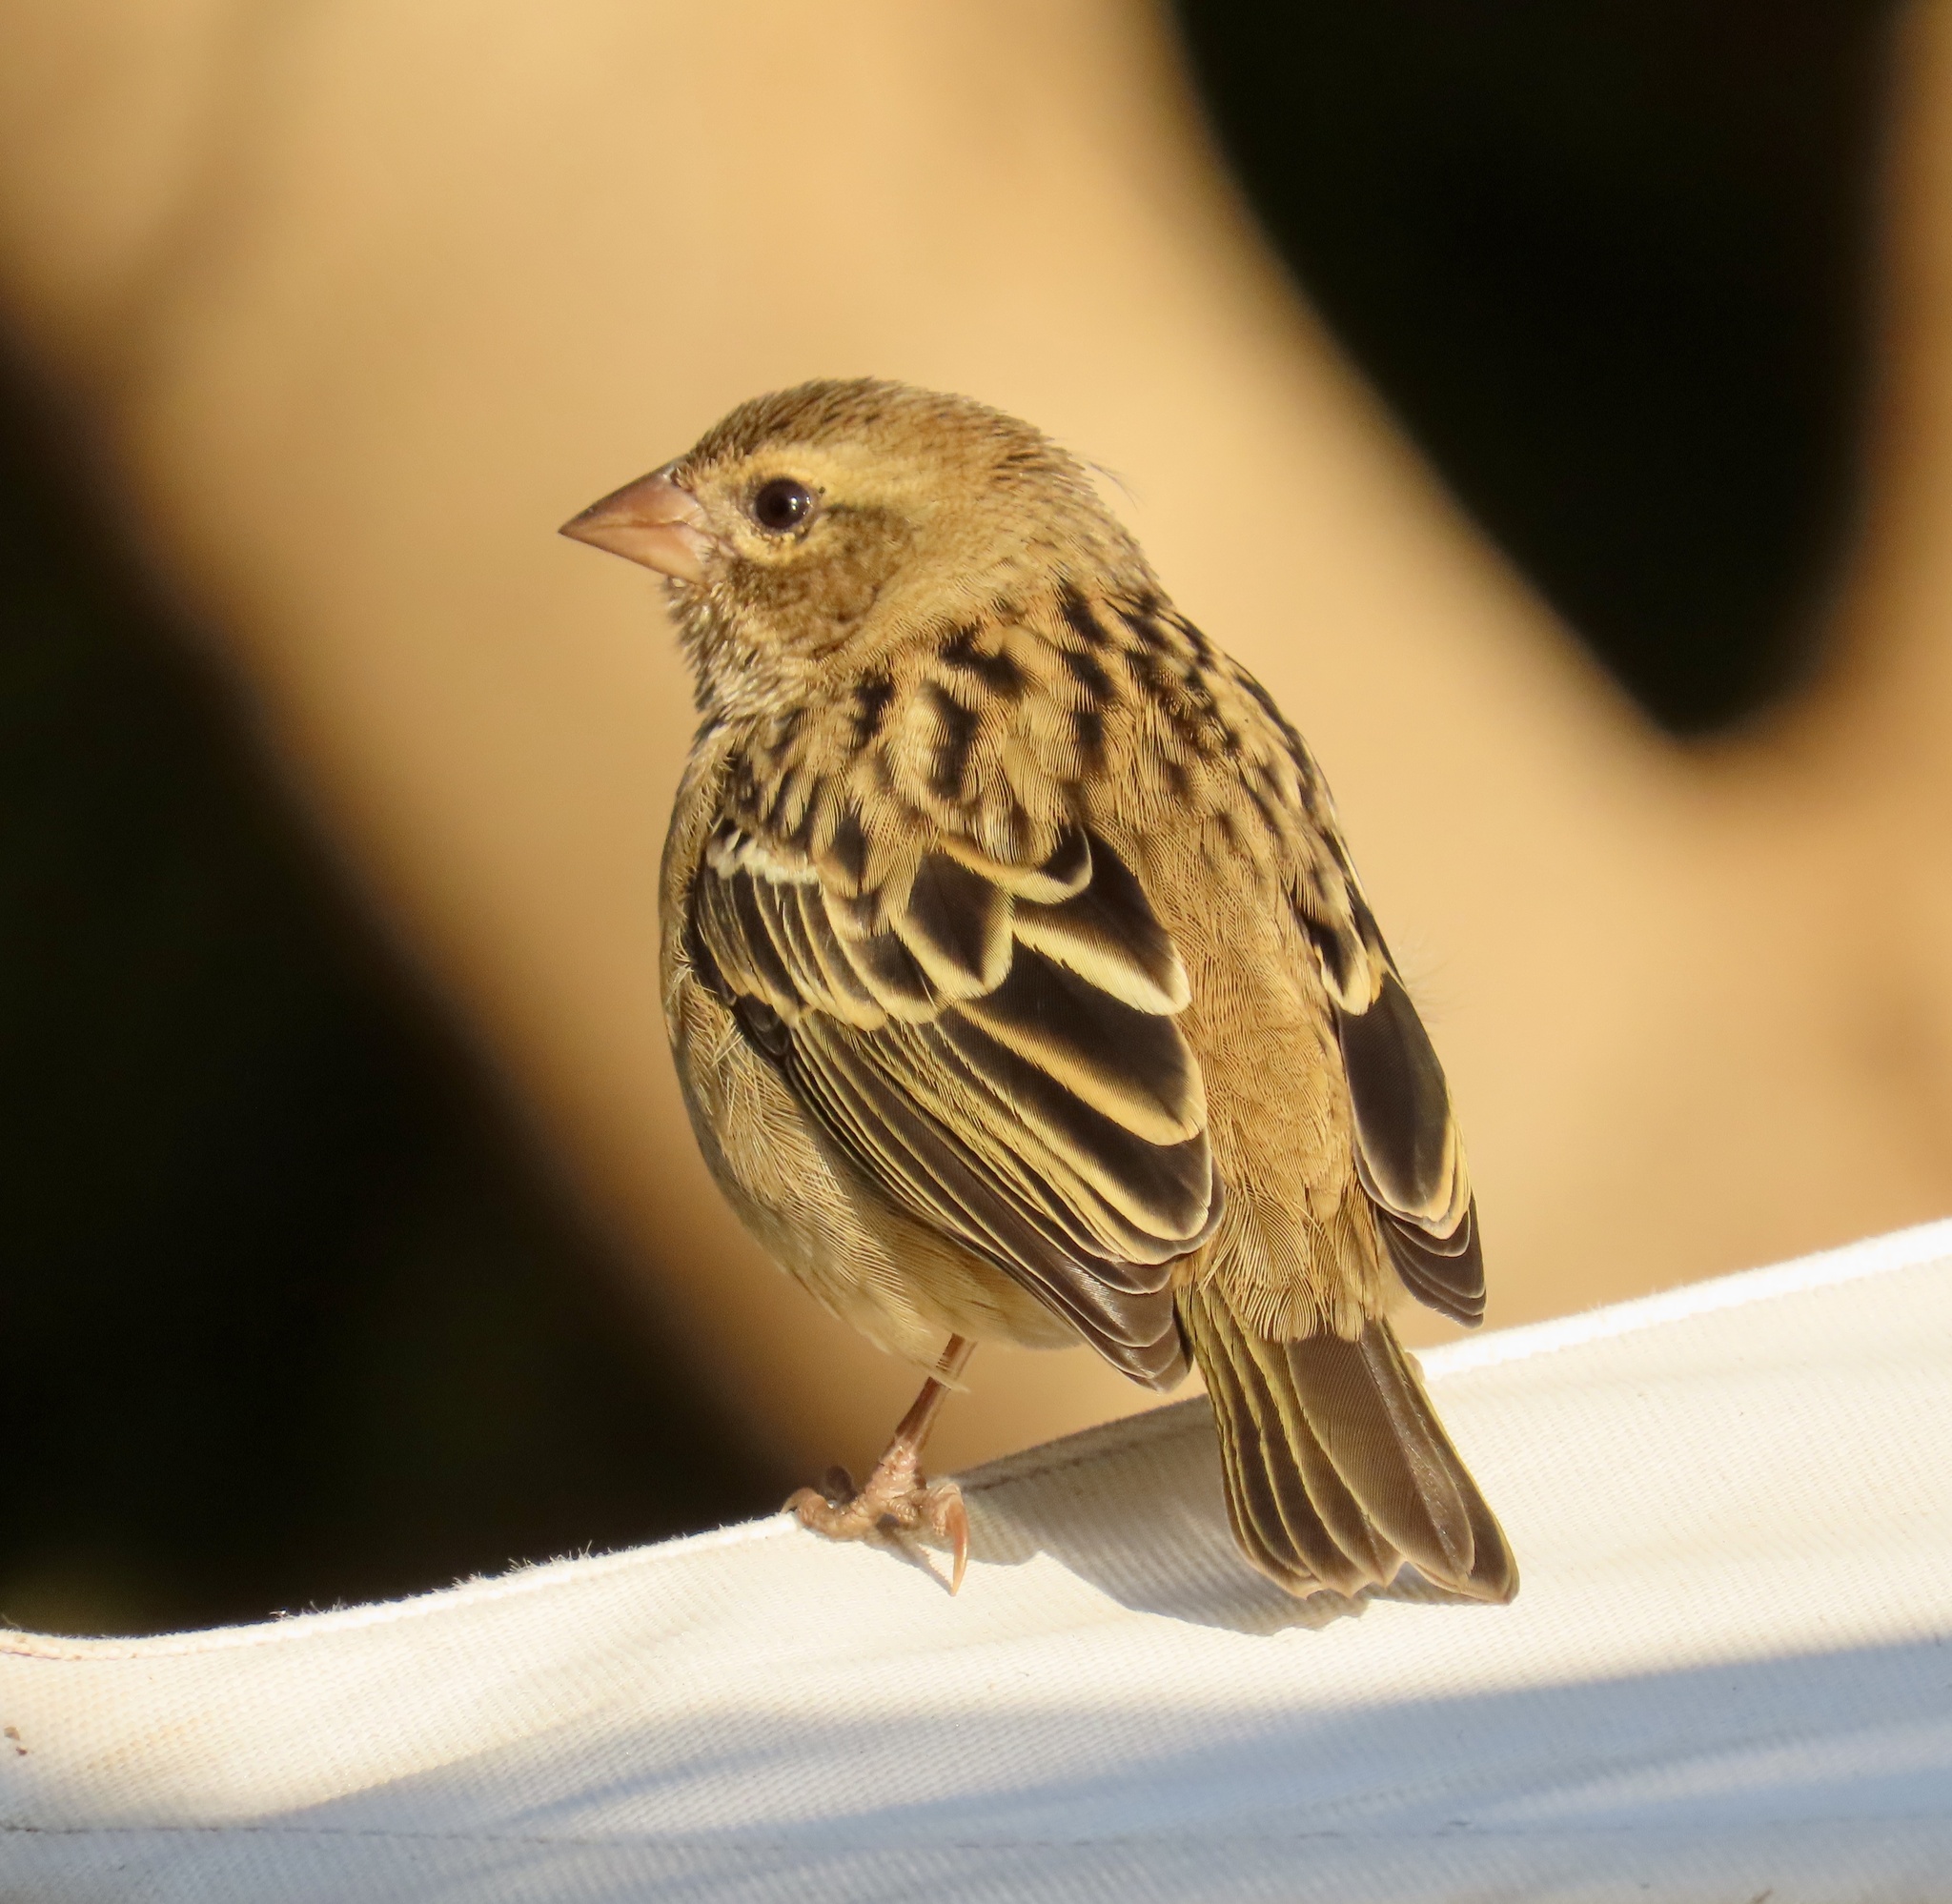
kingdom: Animalia
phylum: Chordata
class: Aves
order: Passeriformes
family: Ploceidae
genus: Foudia
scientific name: Foudia madagascariensis
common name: Red fody
